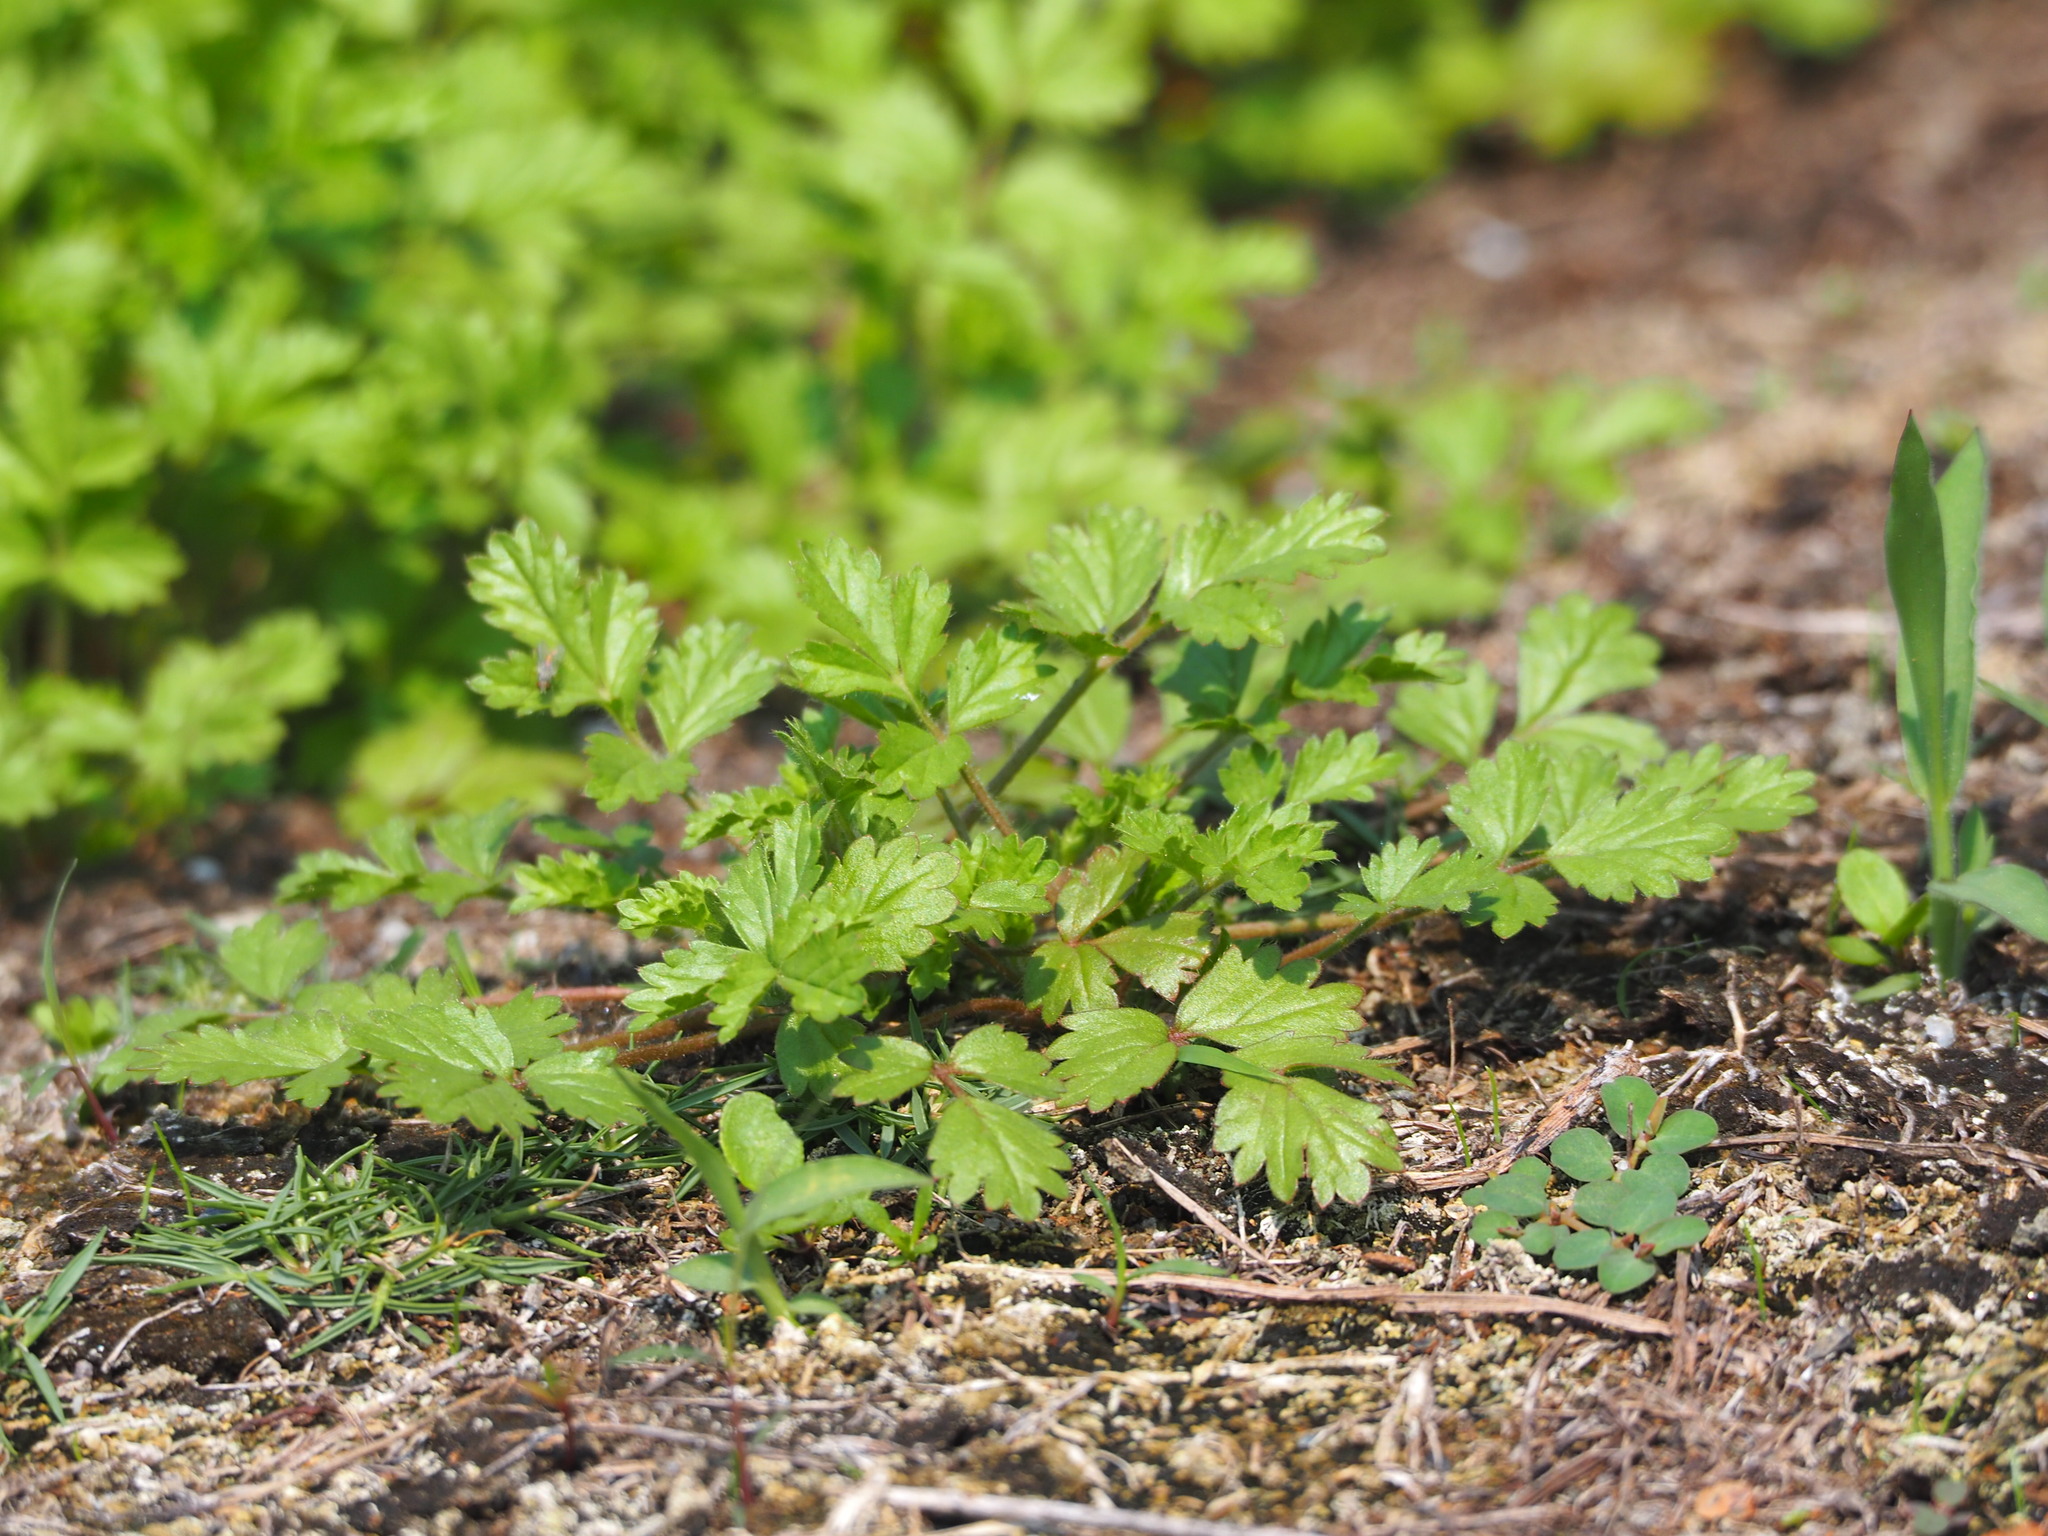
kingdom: Plantae
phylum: Tracheophyta
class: Magnoliopsida
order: Rosales
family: Rosaceae
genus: Potentilla
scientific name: Potentilla heynei
